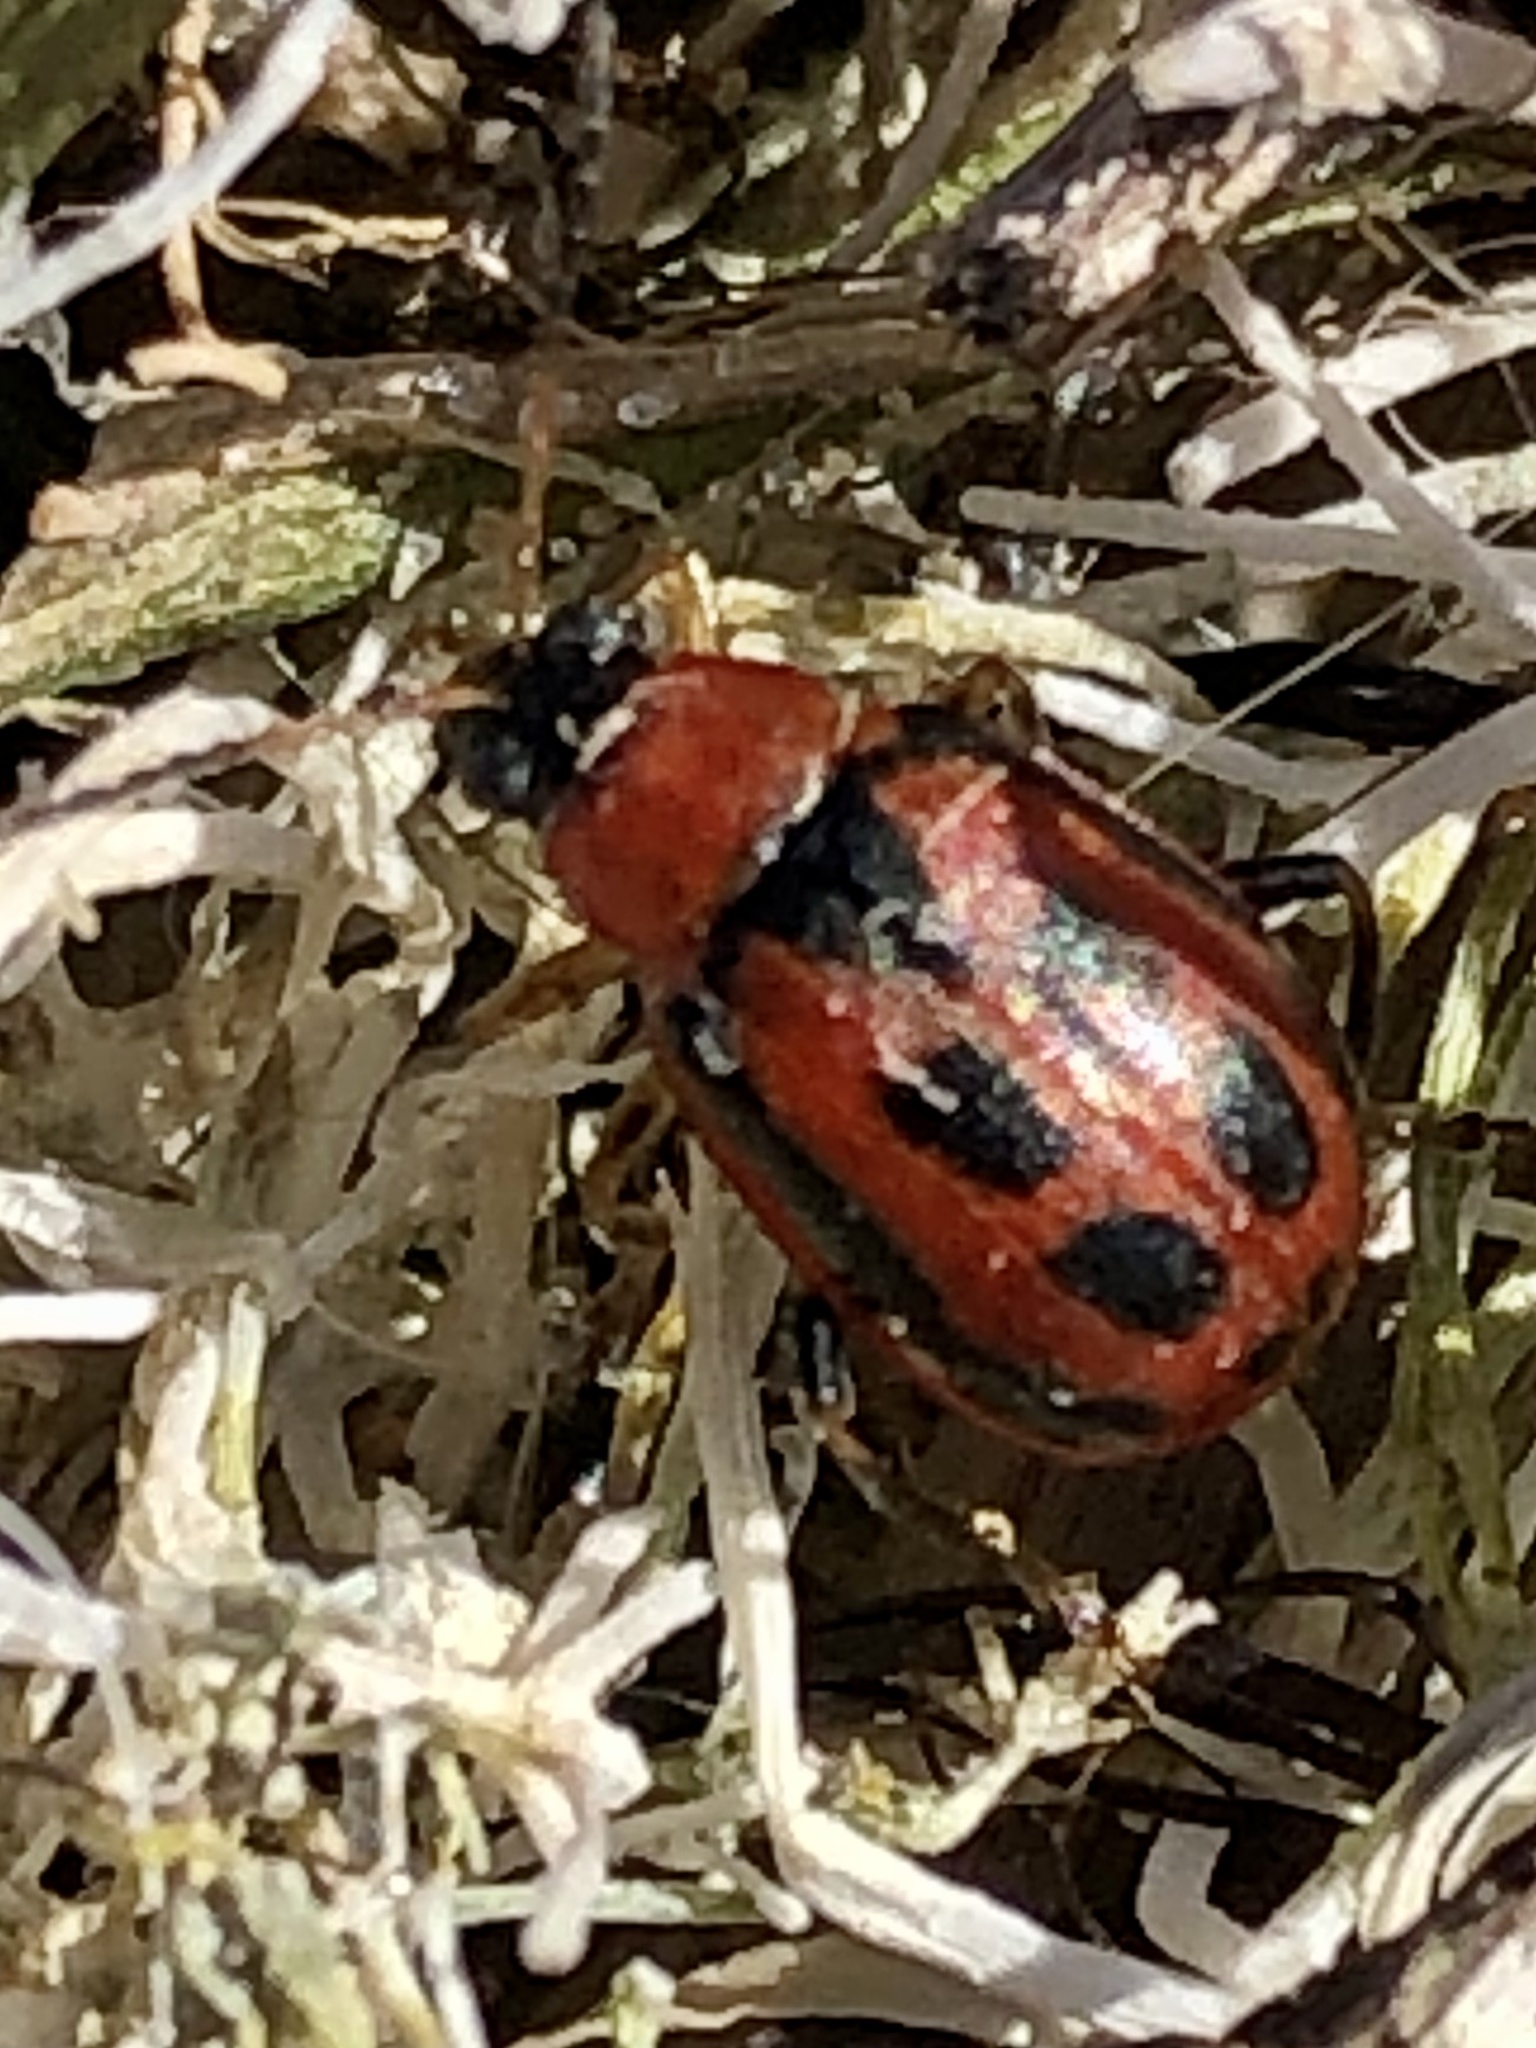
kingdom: Animalia
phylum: Arthropoda
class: Insecta
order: Coleoptera
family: Chrysomelidae
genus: Cerotoma
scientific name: Cerotoma trifurcata
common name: Bean leaf beetle
